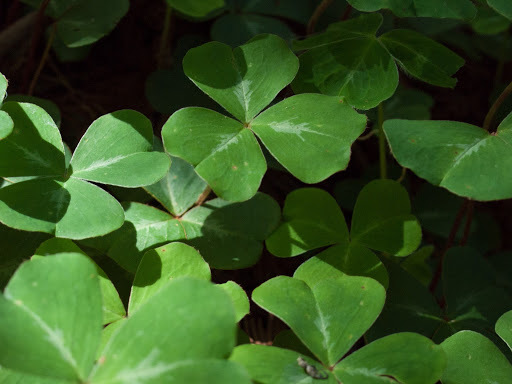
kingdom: Plantae
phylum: Tracheophyta
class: Magnoliopsida
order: Oxalidales
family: Oxalidaceae
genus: Oxalis
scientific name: Oxalis oregana
